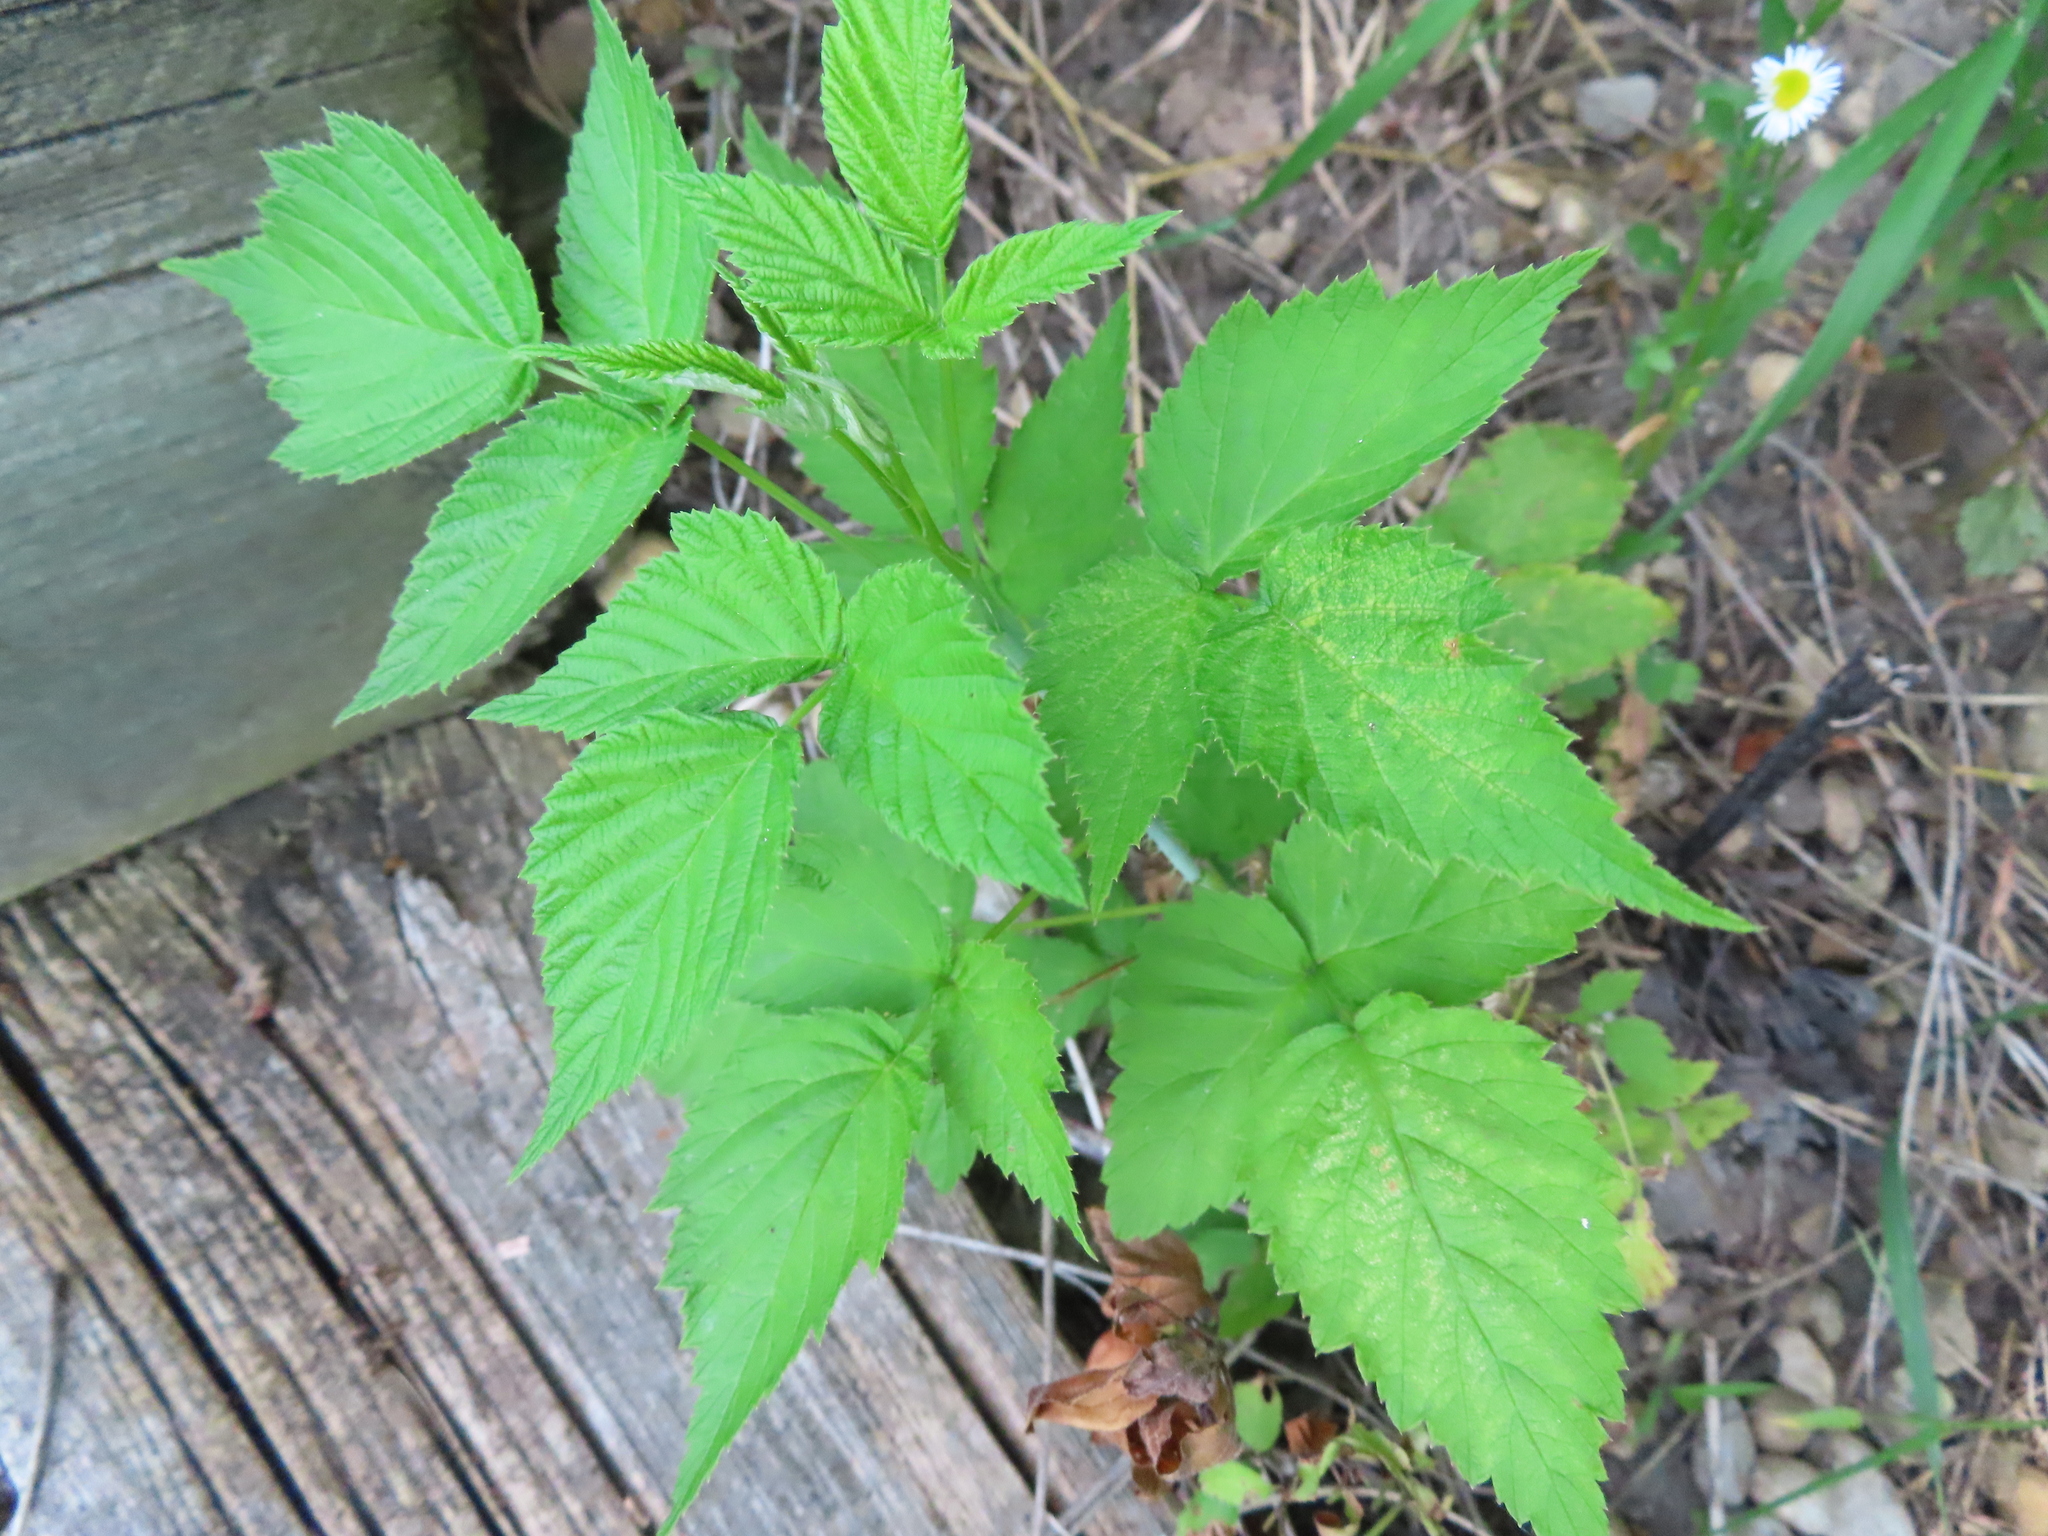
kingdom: Plantae
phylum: Tracheophyta
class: Magnoliopsida
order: Rosales
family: Rosaceae
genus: Rubus
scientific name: Rubus occidentalis
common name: Black raspberry
